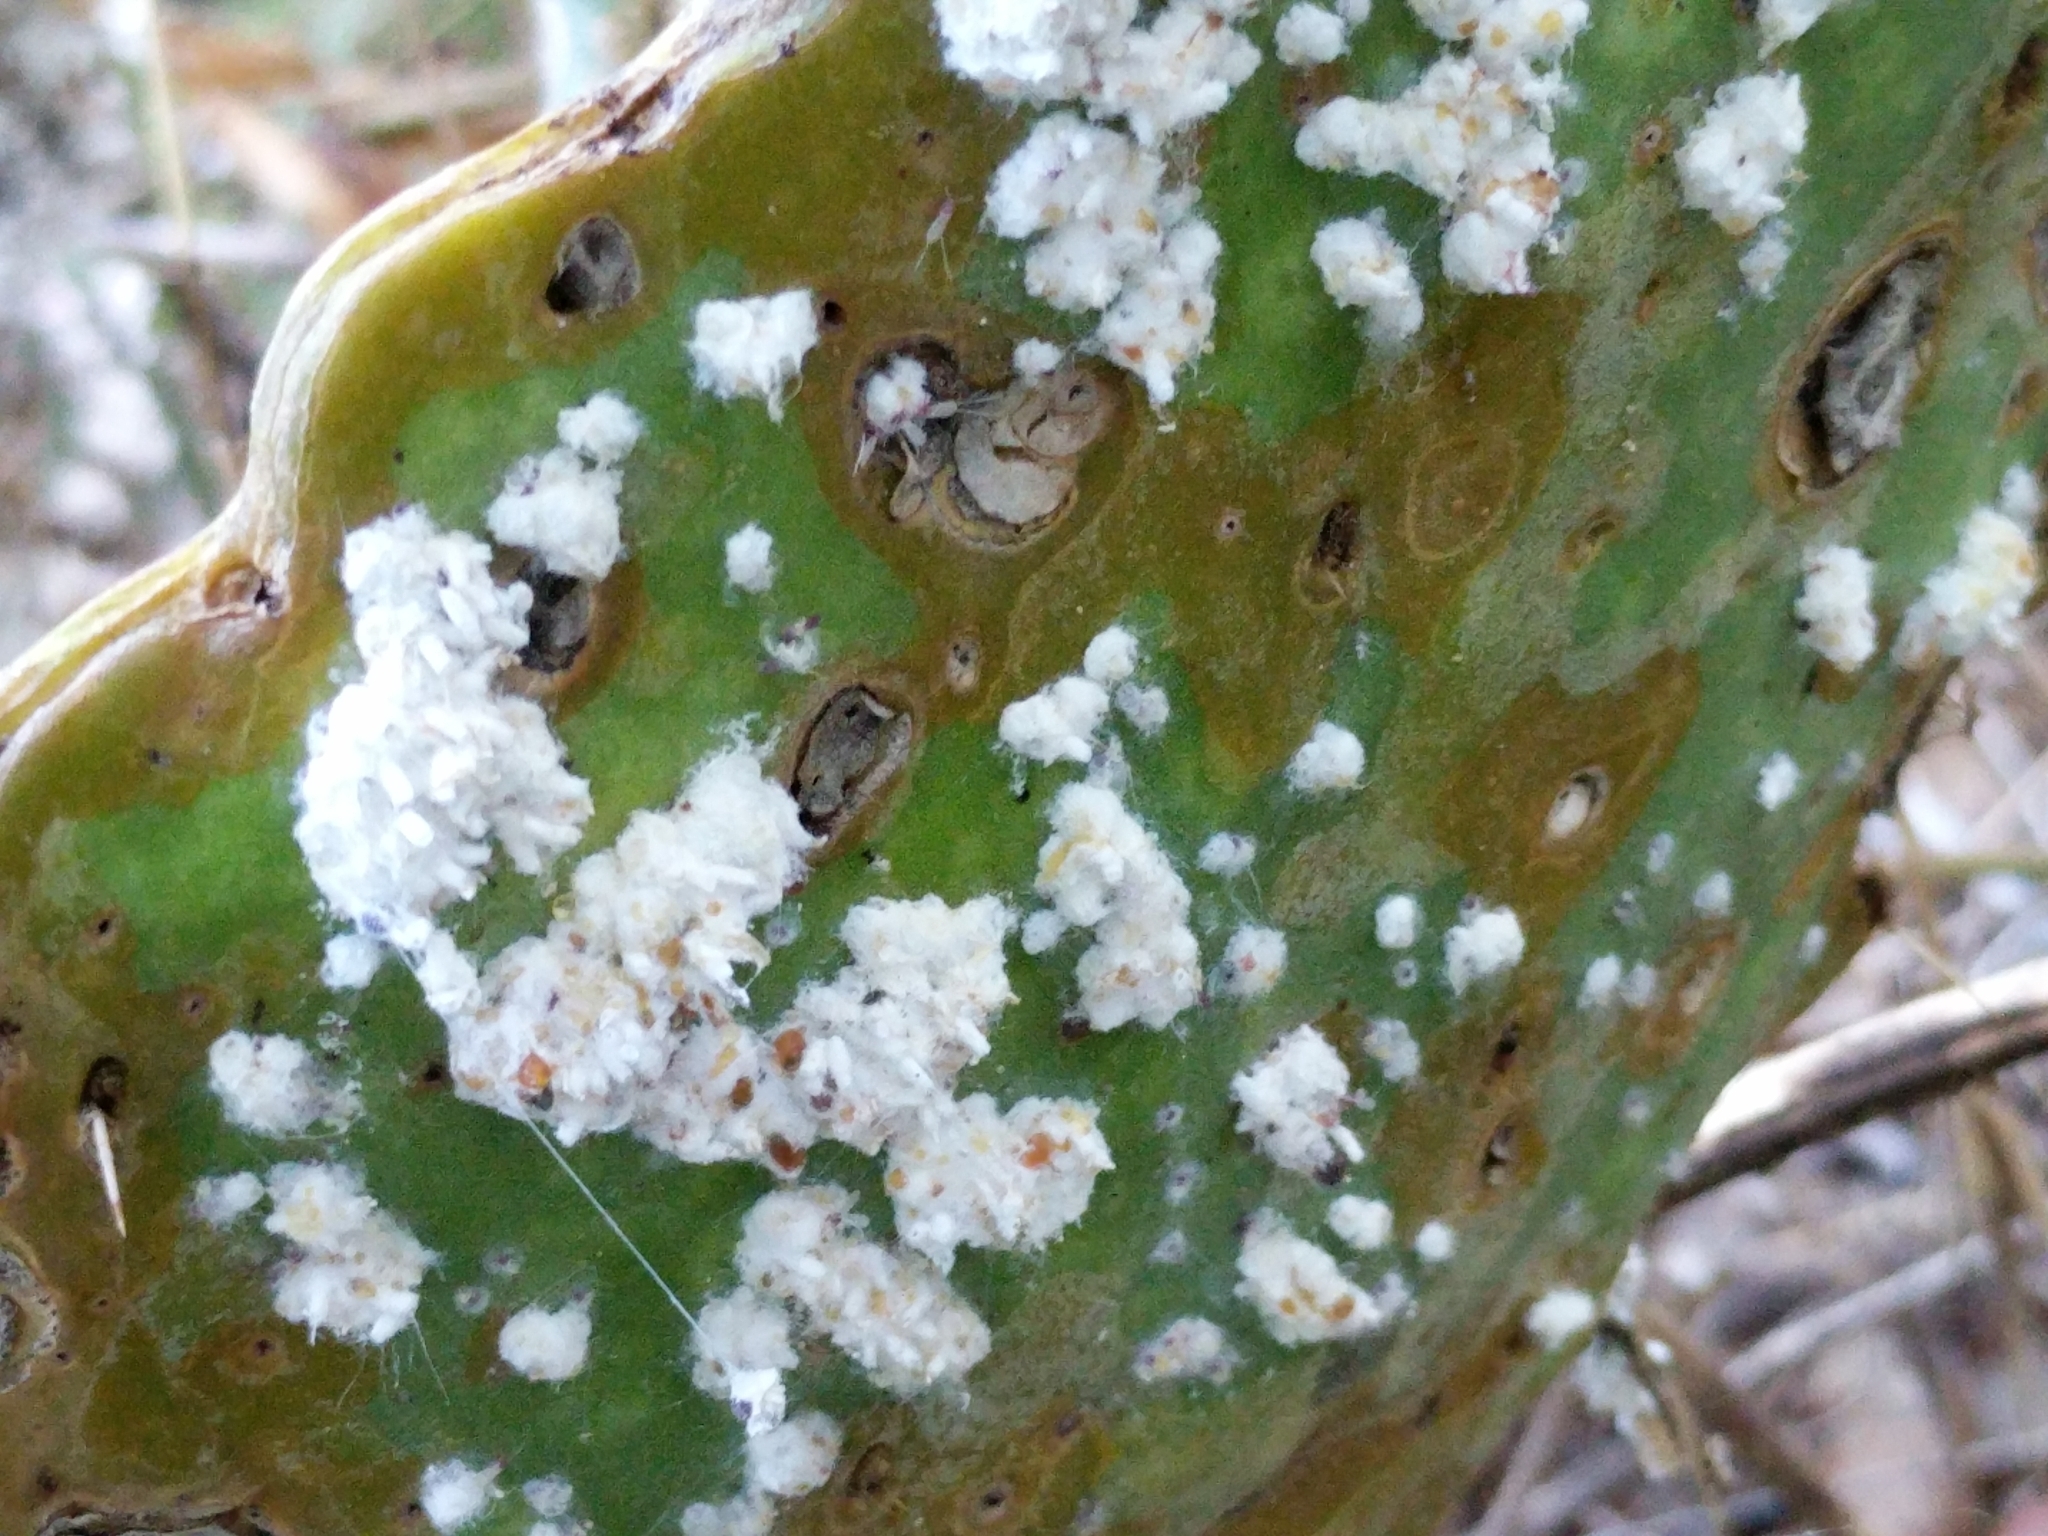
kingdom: Animalia
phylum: Arthropoda
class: Insecta
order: Hemiptera
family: Dactylopiidae
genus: Dactylopius
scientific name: Dactylopius confusus
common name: California cochineal scale
